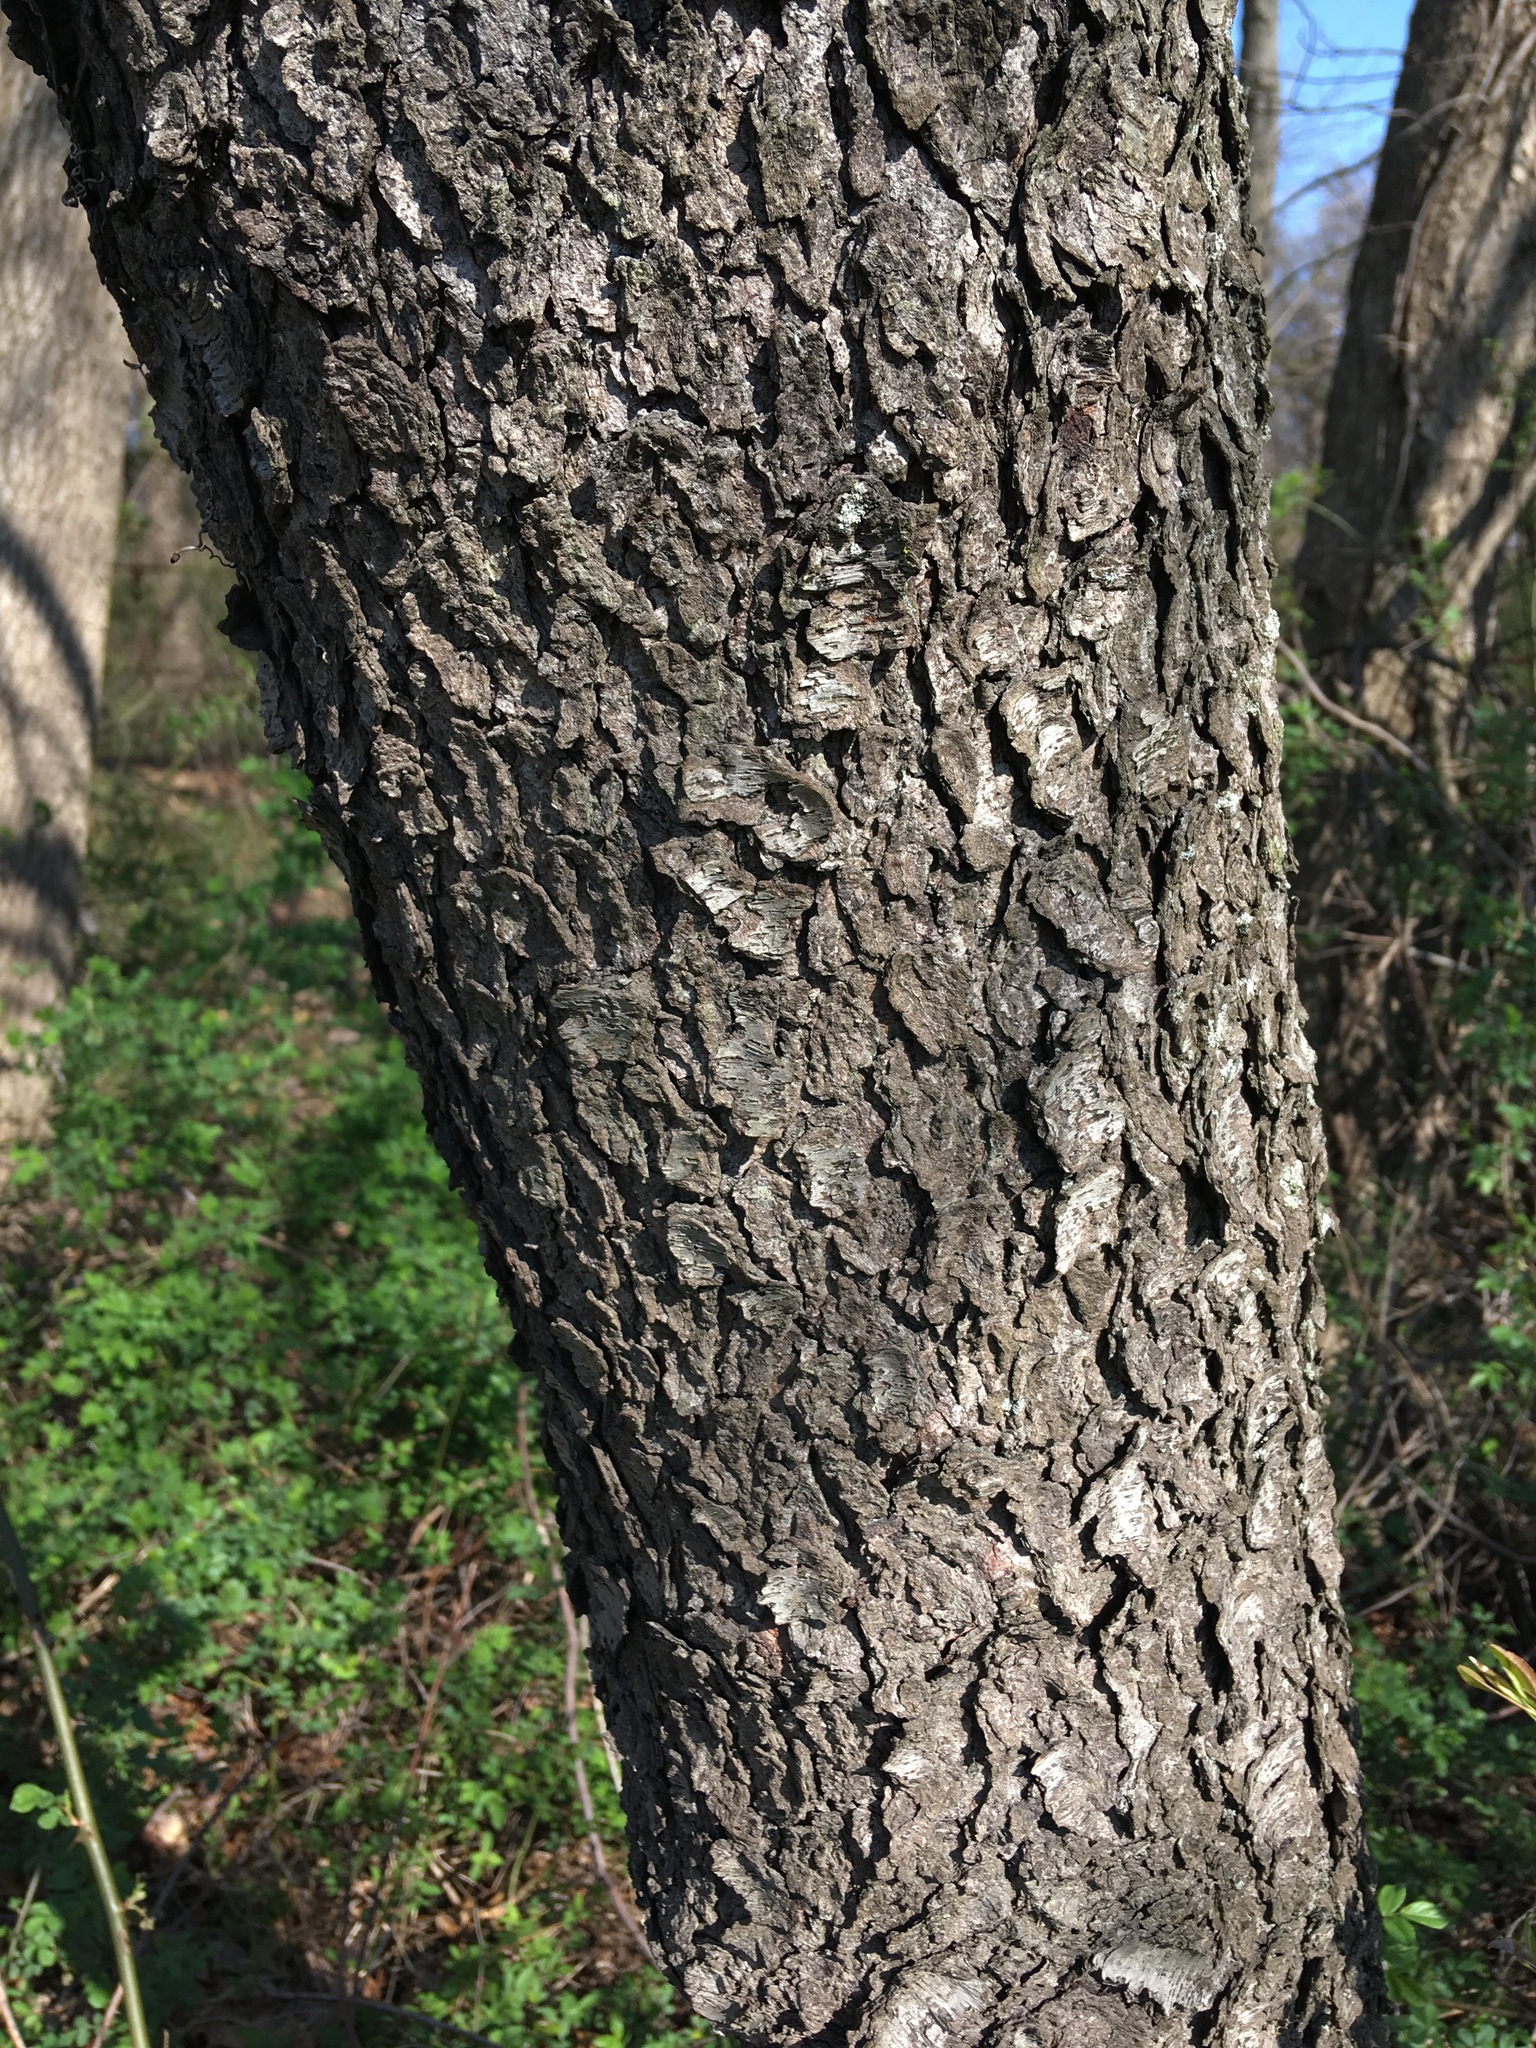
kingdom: Plantae
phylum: Tracheophyta
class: Magnoliopsida
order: Rosales
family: Rosaceae
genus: Prunus
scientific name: Prunus serotina
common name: Black cherry
